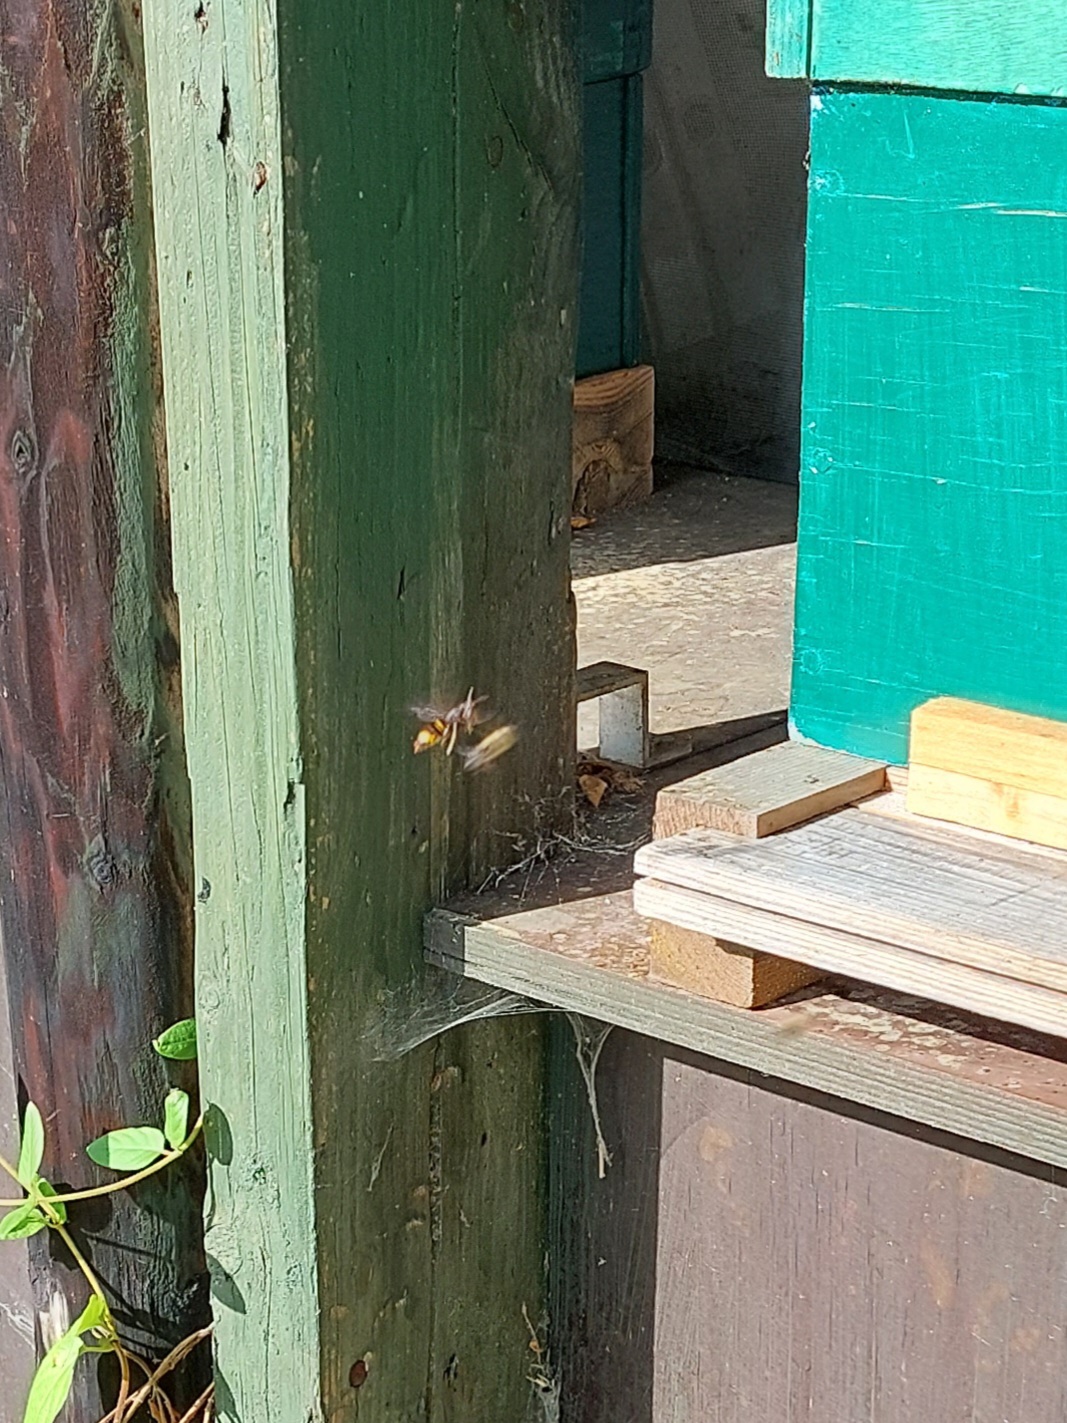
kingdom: Animalia
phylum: Arthropoda
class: Insecta
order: Hymenoptera
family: Vespidae
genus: Vespa
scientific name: Vespa velutina
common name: Asian hornet
